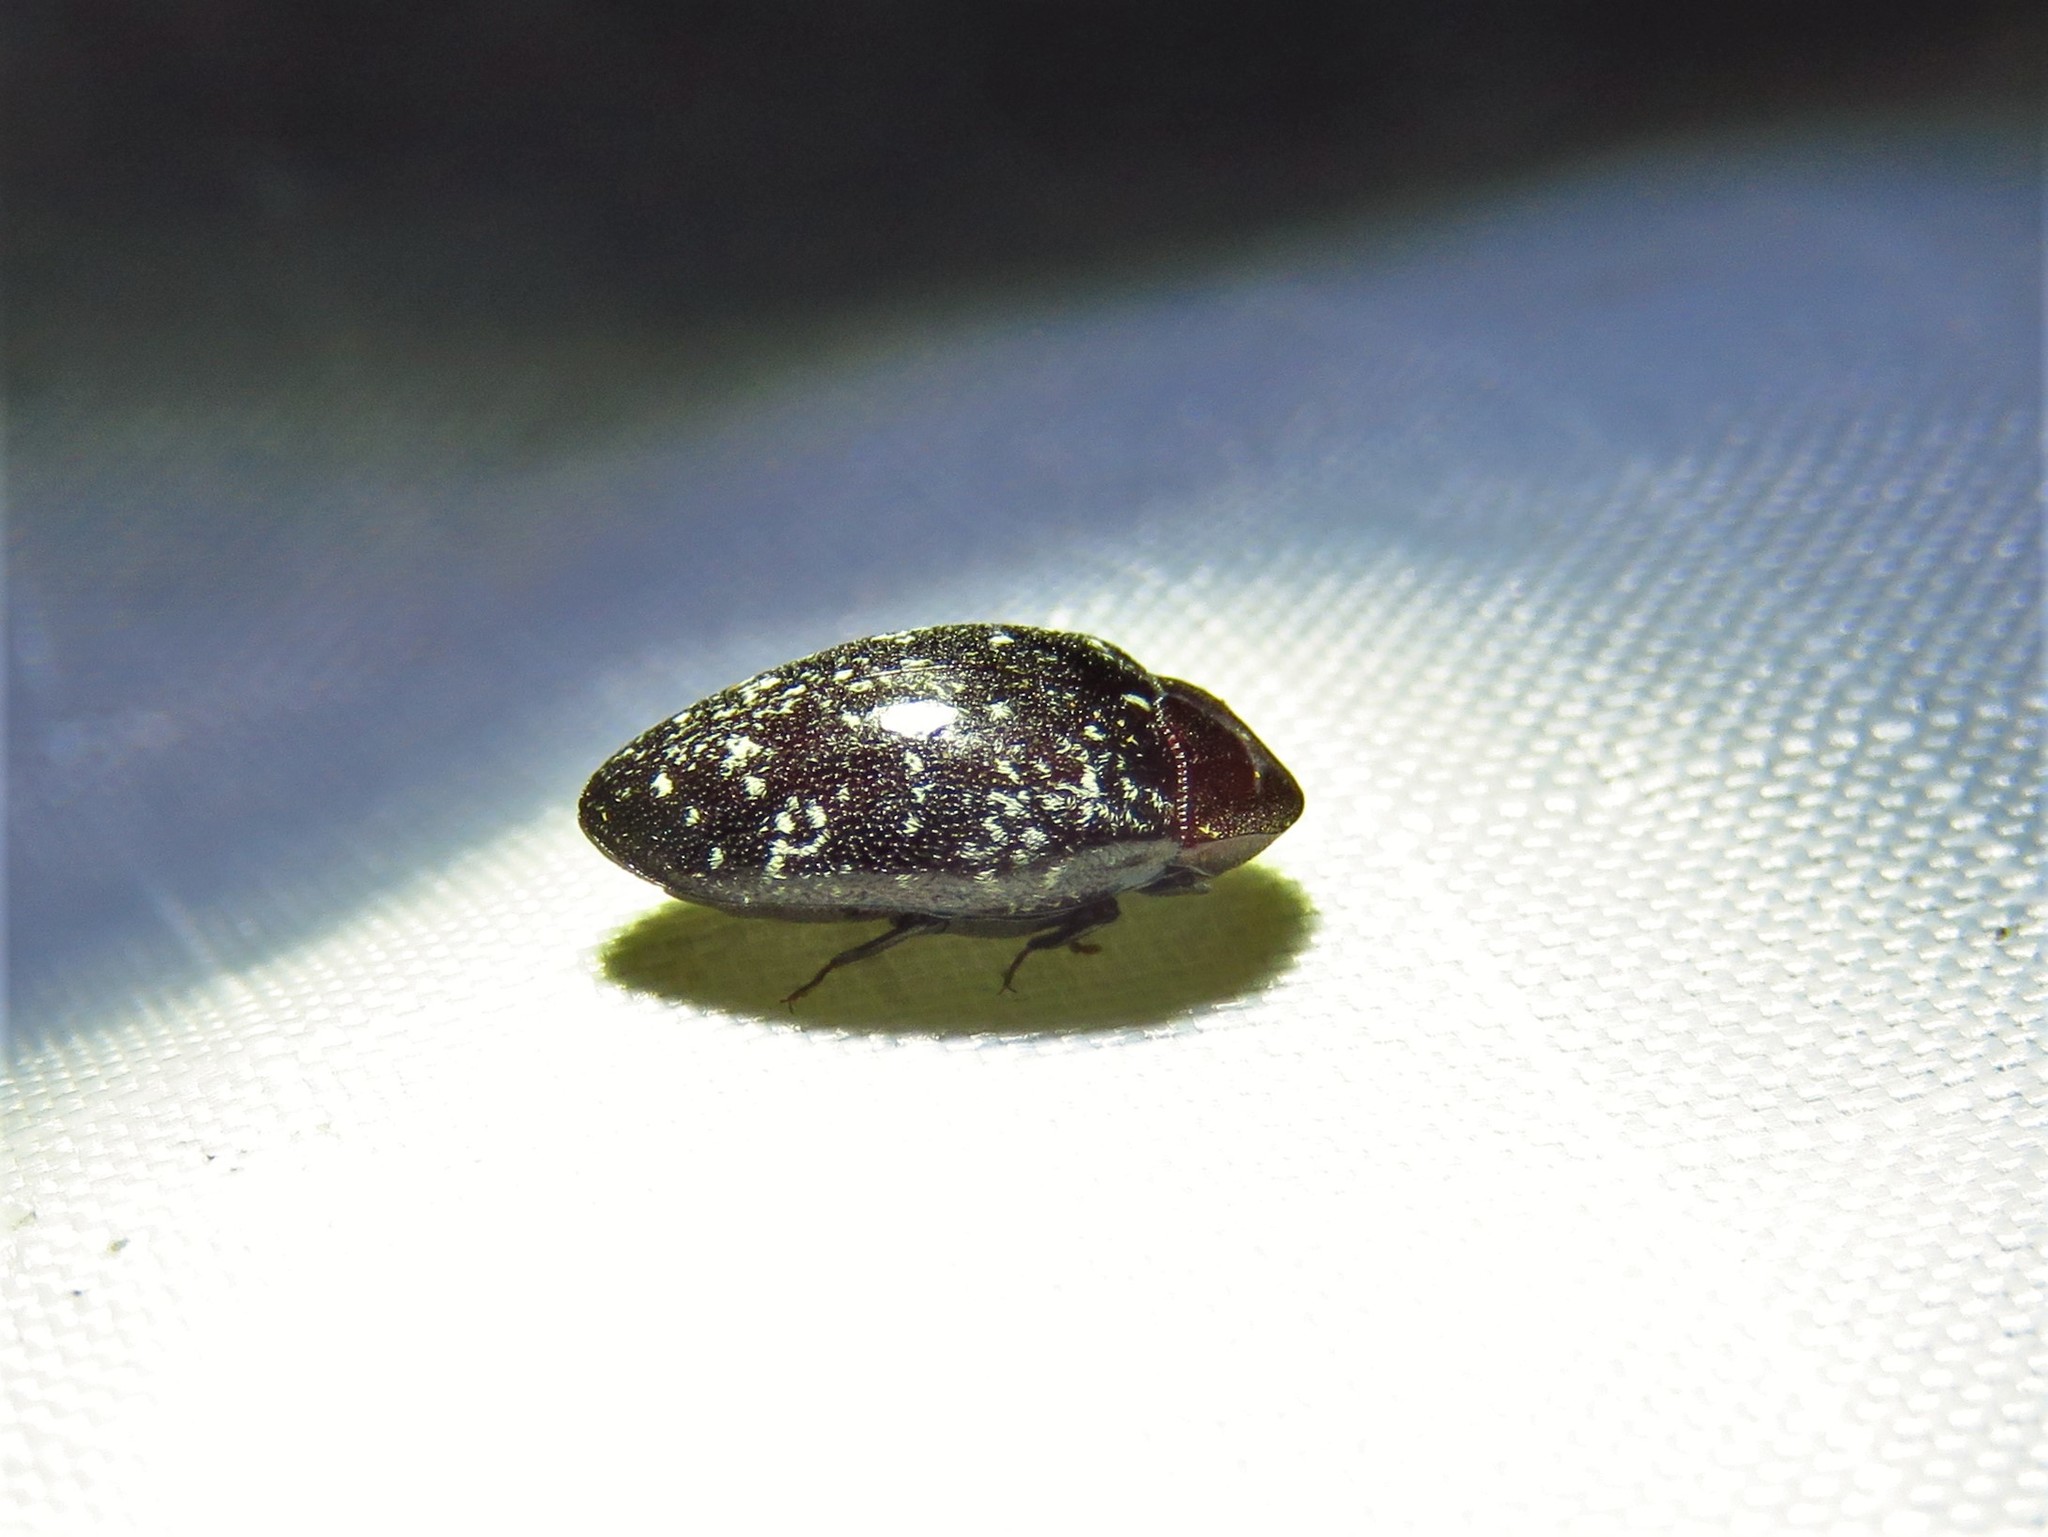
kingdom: Animalia
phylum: Arthropoda
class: Insecta
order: Coleoptera
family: Chelonariidae
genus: Chelonarium
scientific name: Chelonarium lecontei
